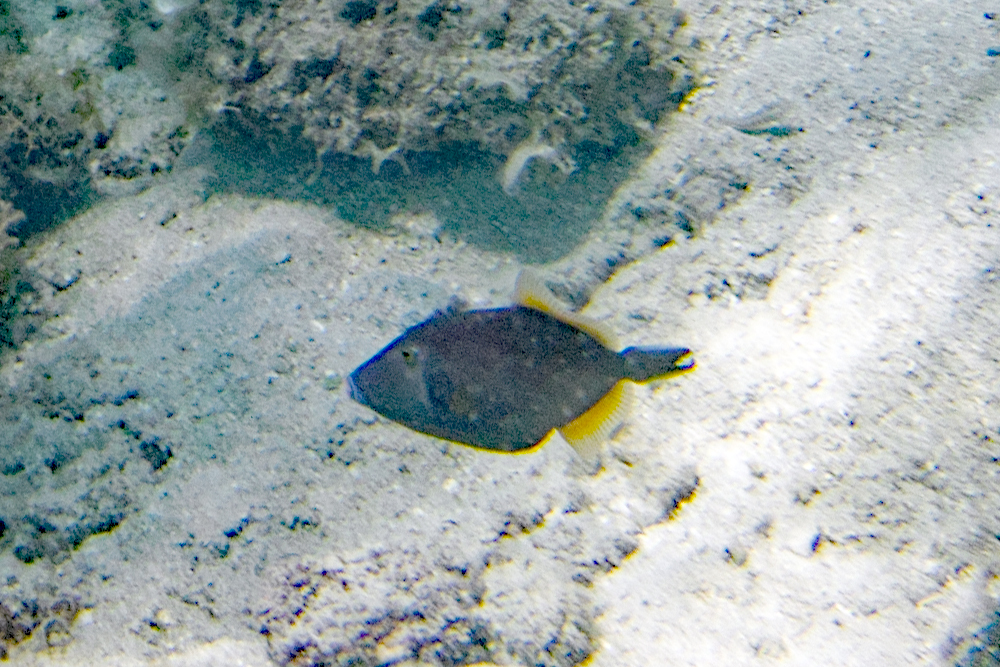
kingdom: Animalia
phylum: Chordata
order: Tetraodontiformes
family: Monacanthidae
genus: Cantherhines
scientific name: Cantherhines dumerilii
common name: Barred filefish
